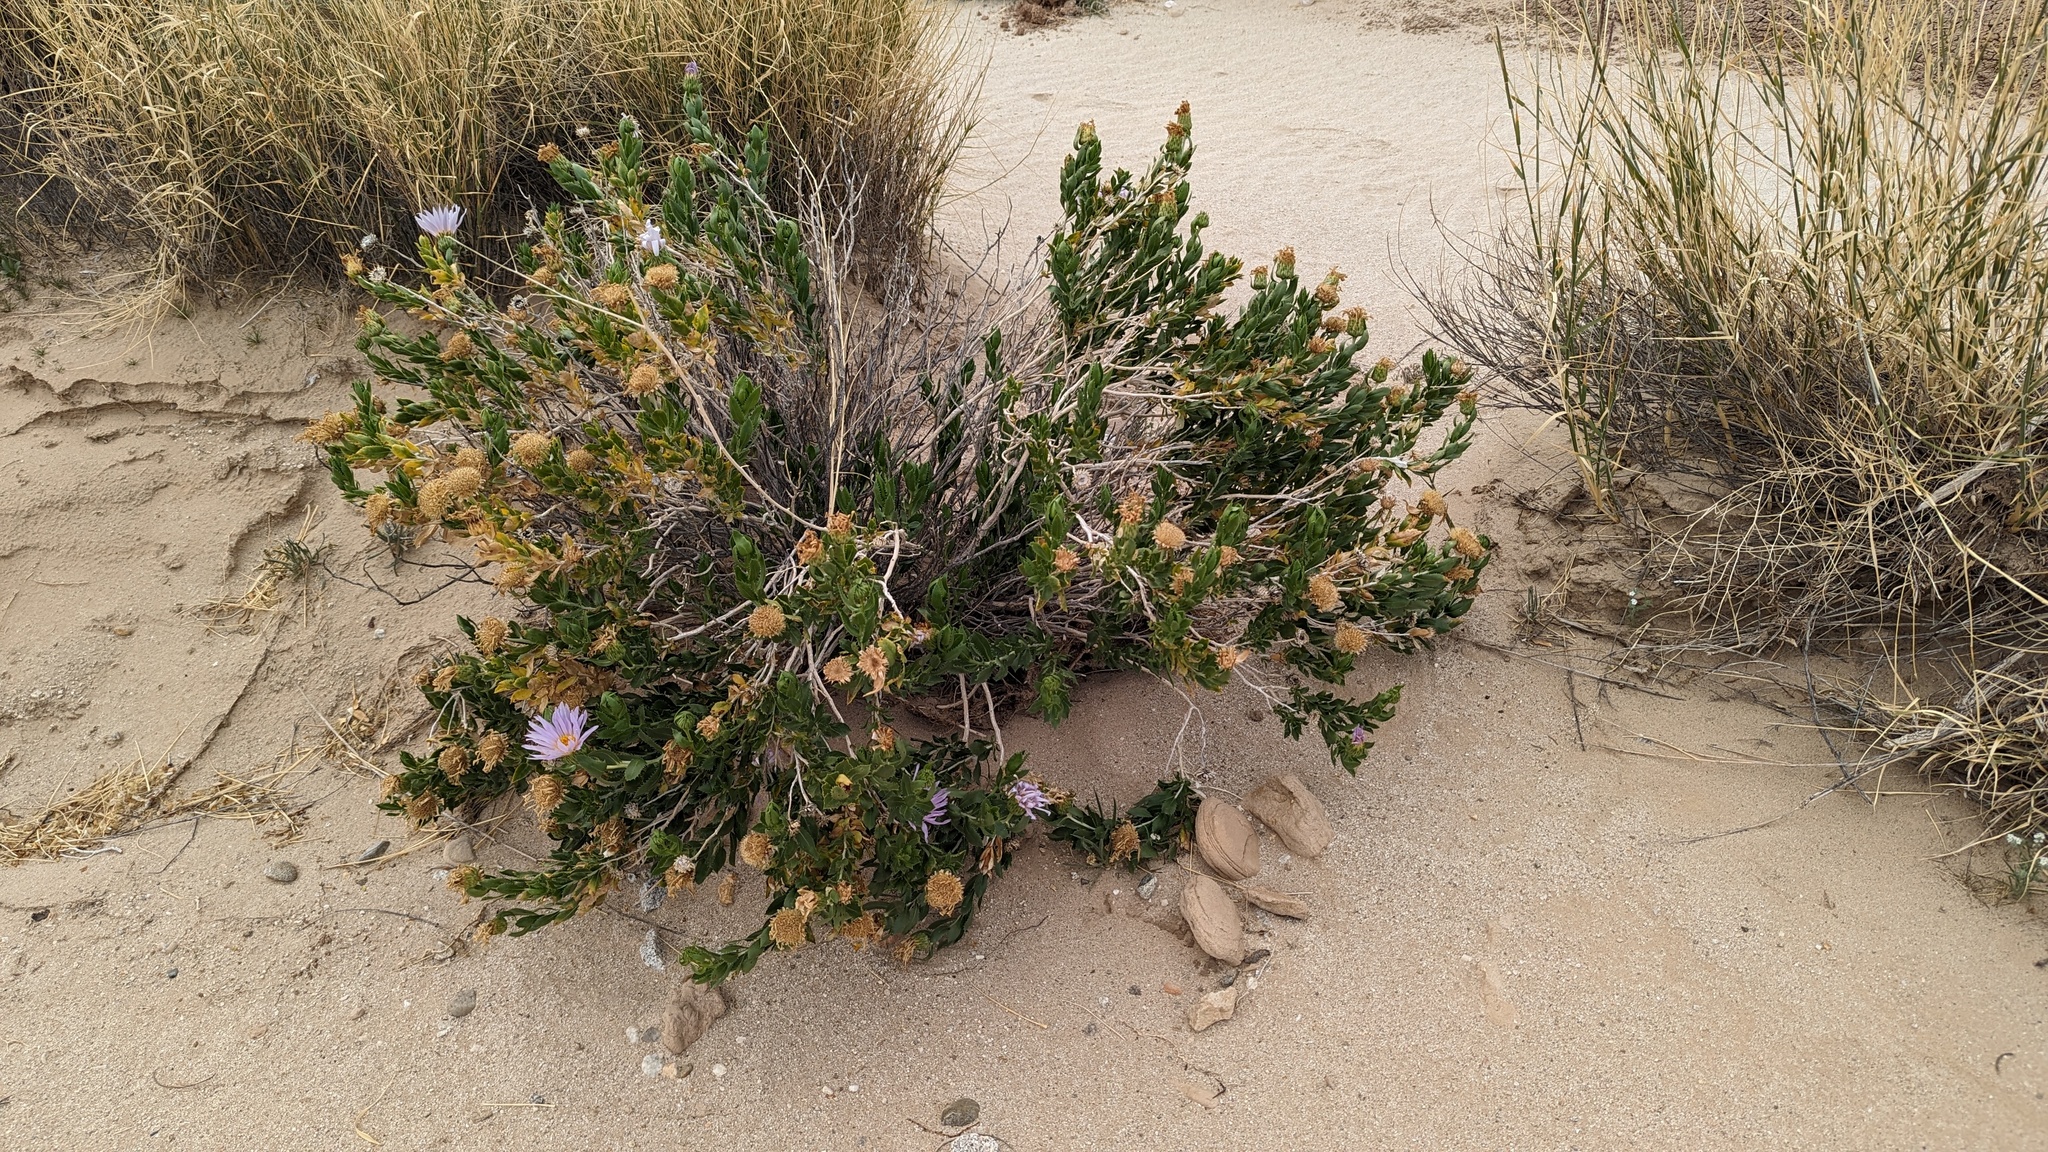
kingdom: Plantae
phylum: Tracheophyta
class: Magnoliopsida
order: Asterales
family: Asteraceae
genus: Xylorhiza
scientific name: Xylorhiza orcuttii
